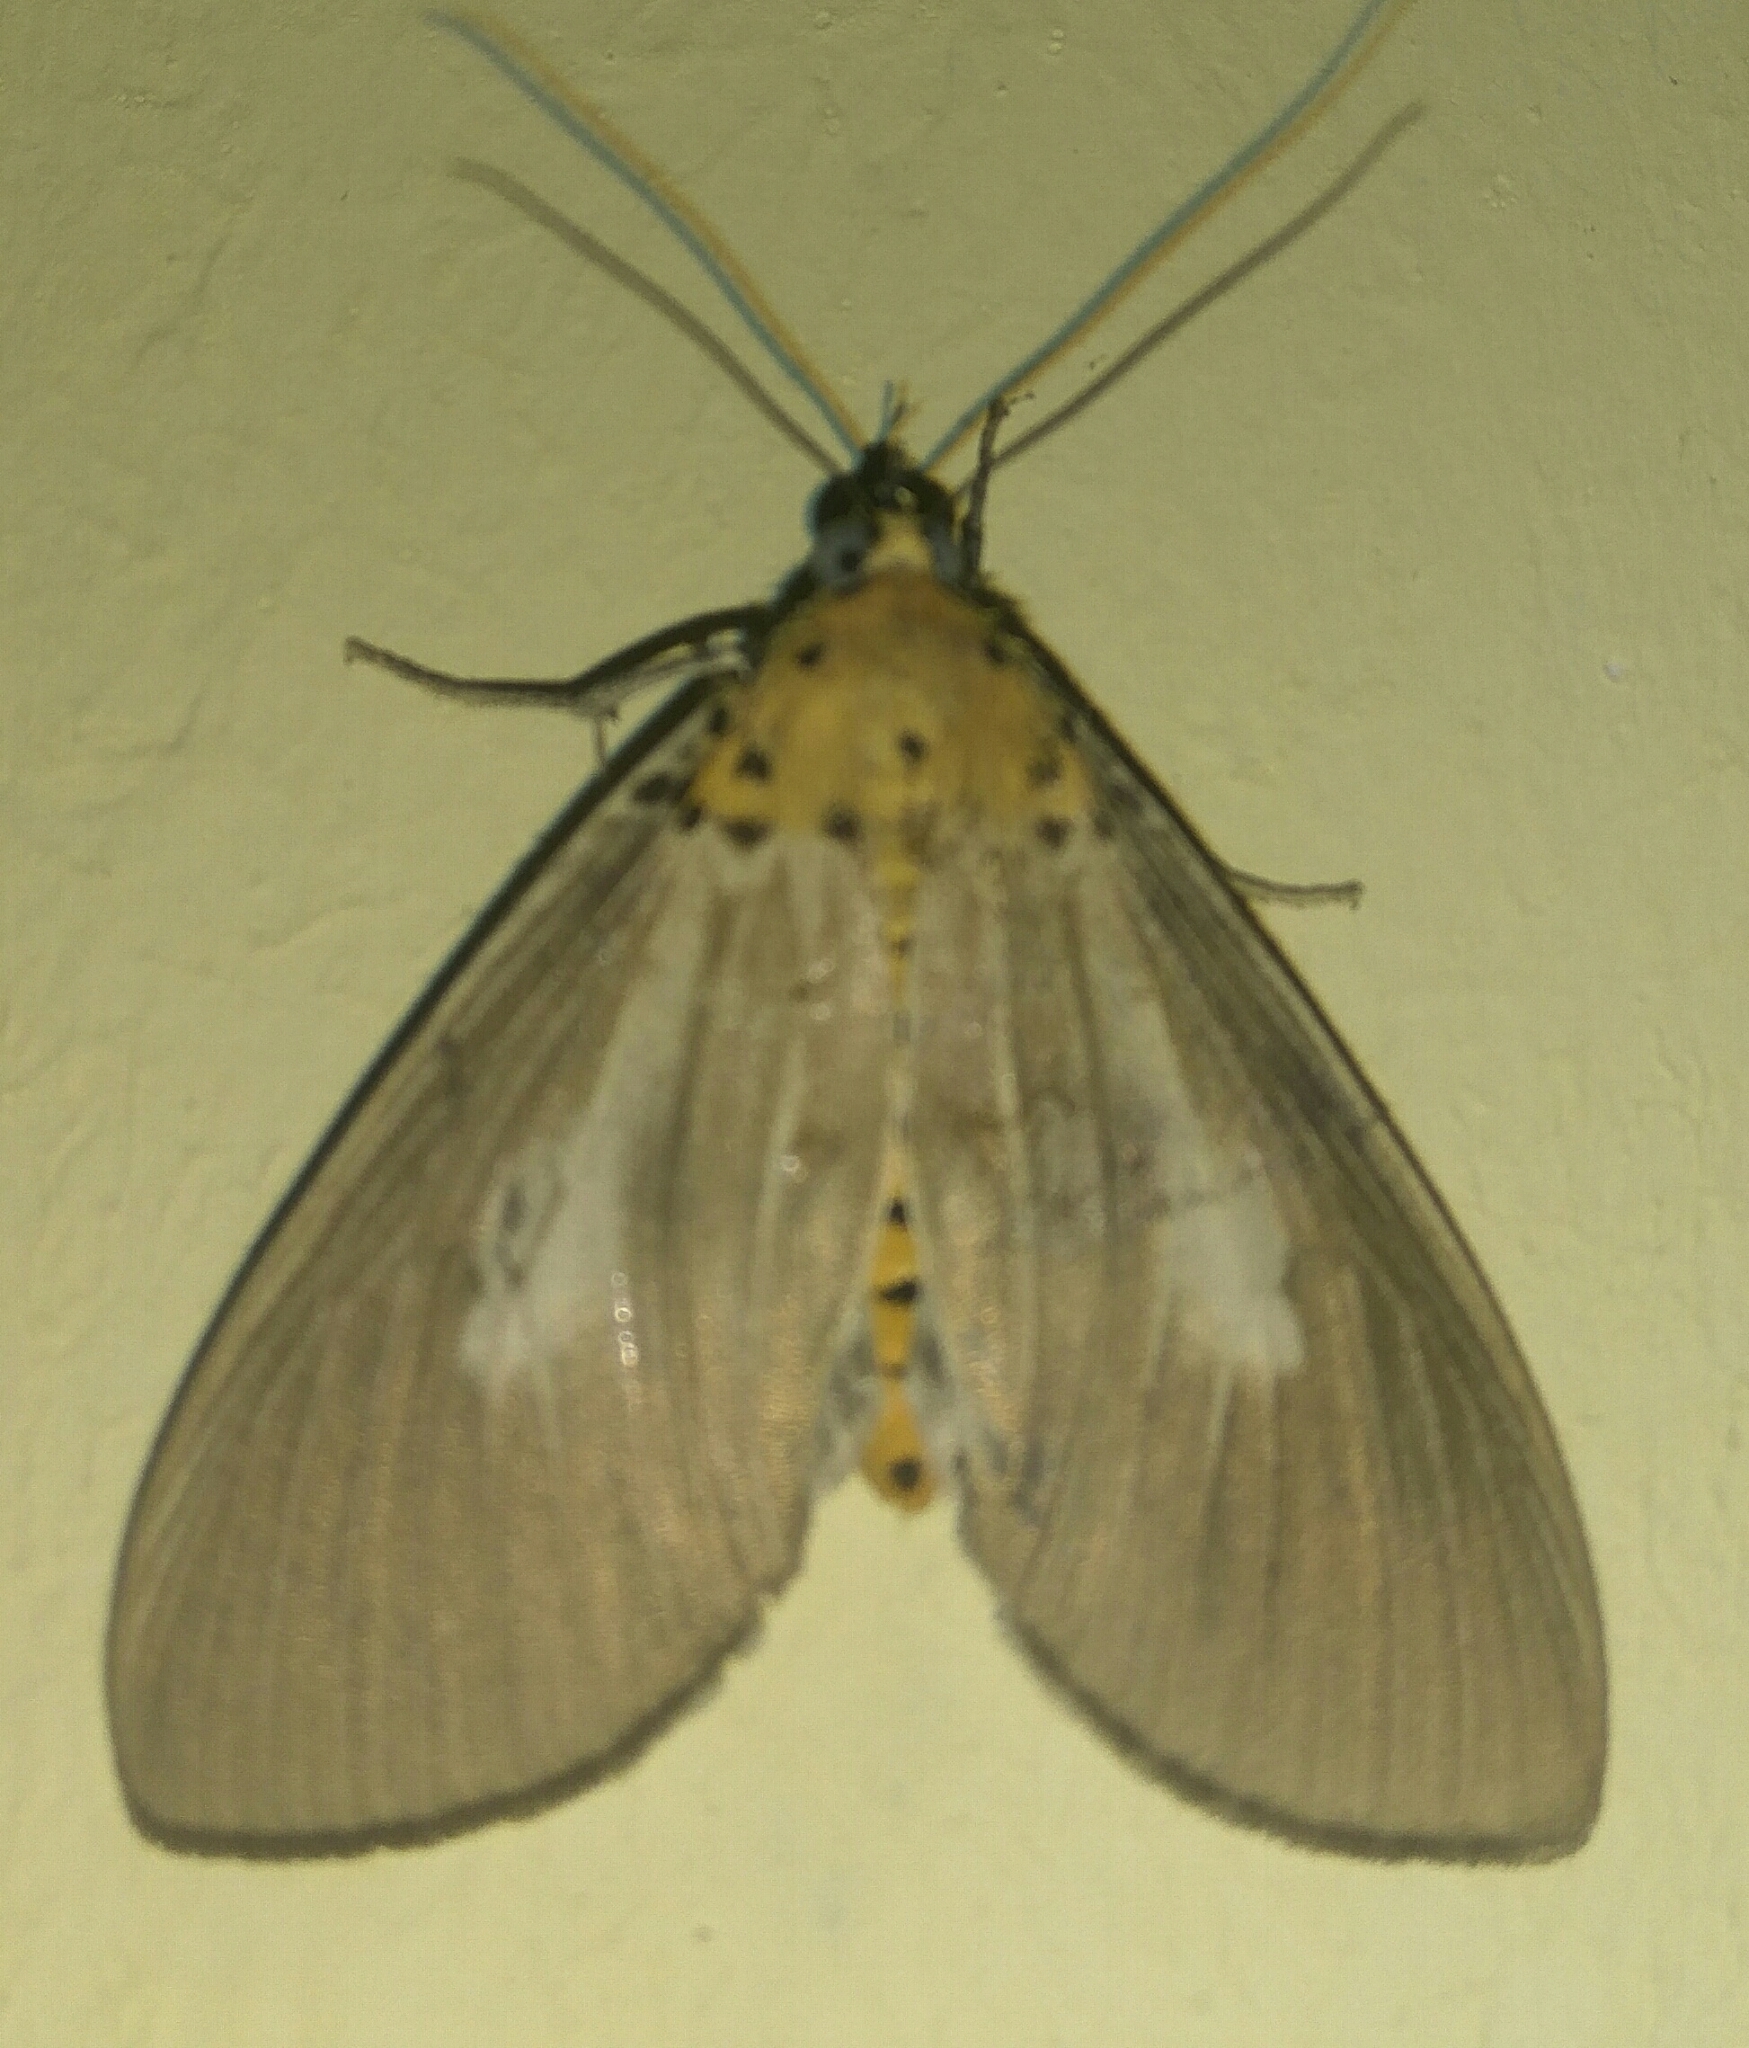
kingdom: Animalia
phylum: Arthropoda
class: Insecta
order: Lepidoptera
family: Erebidae
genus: Asota
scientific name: Asota heliconia
